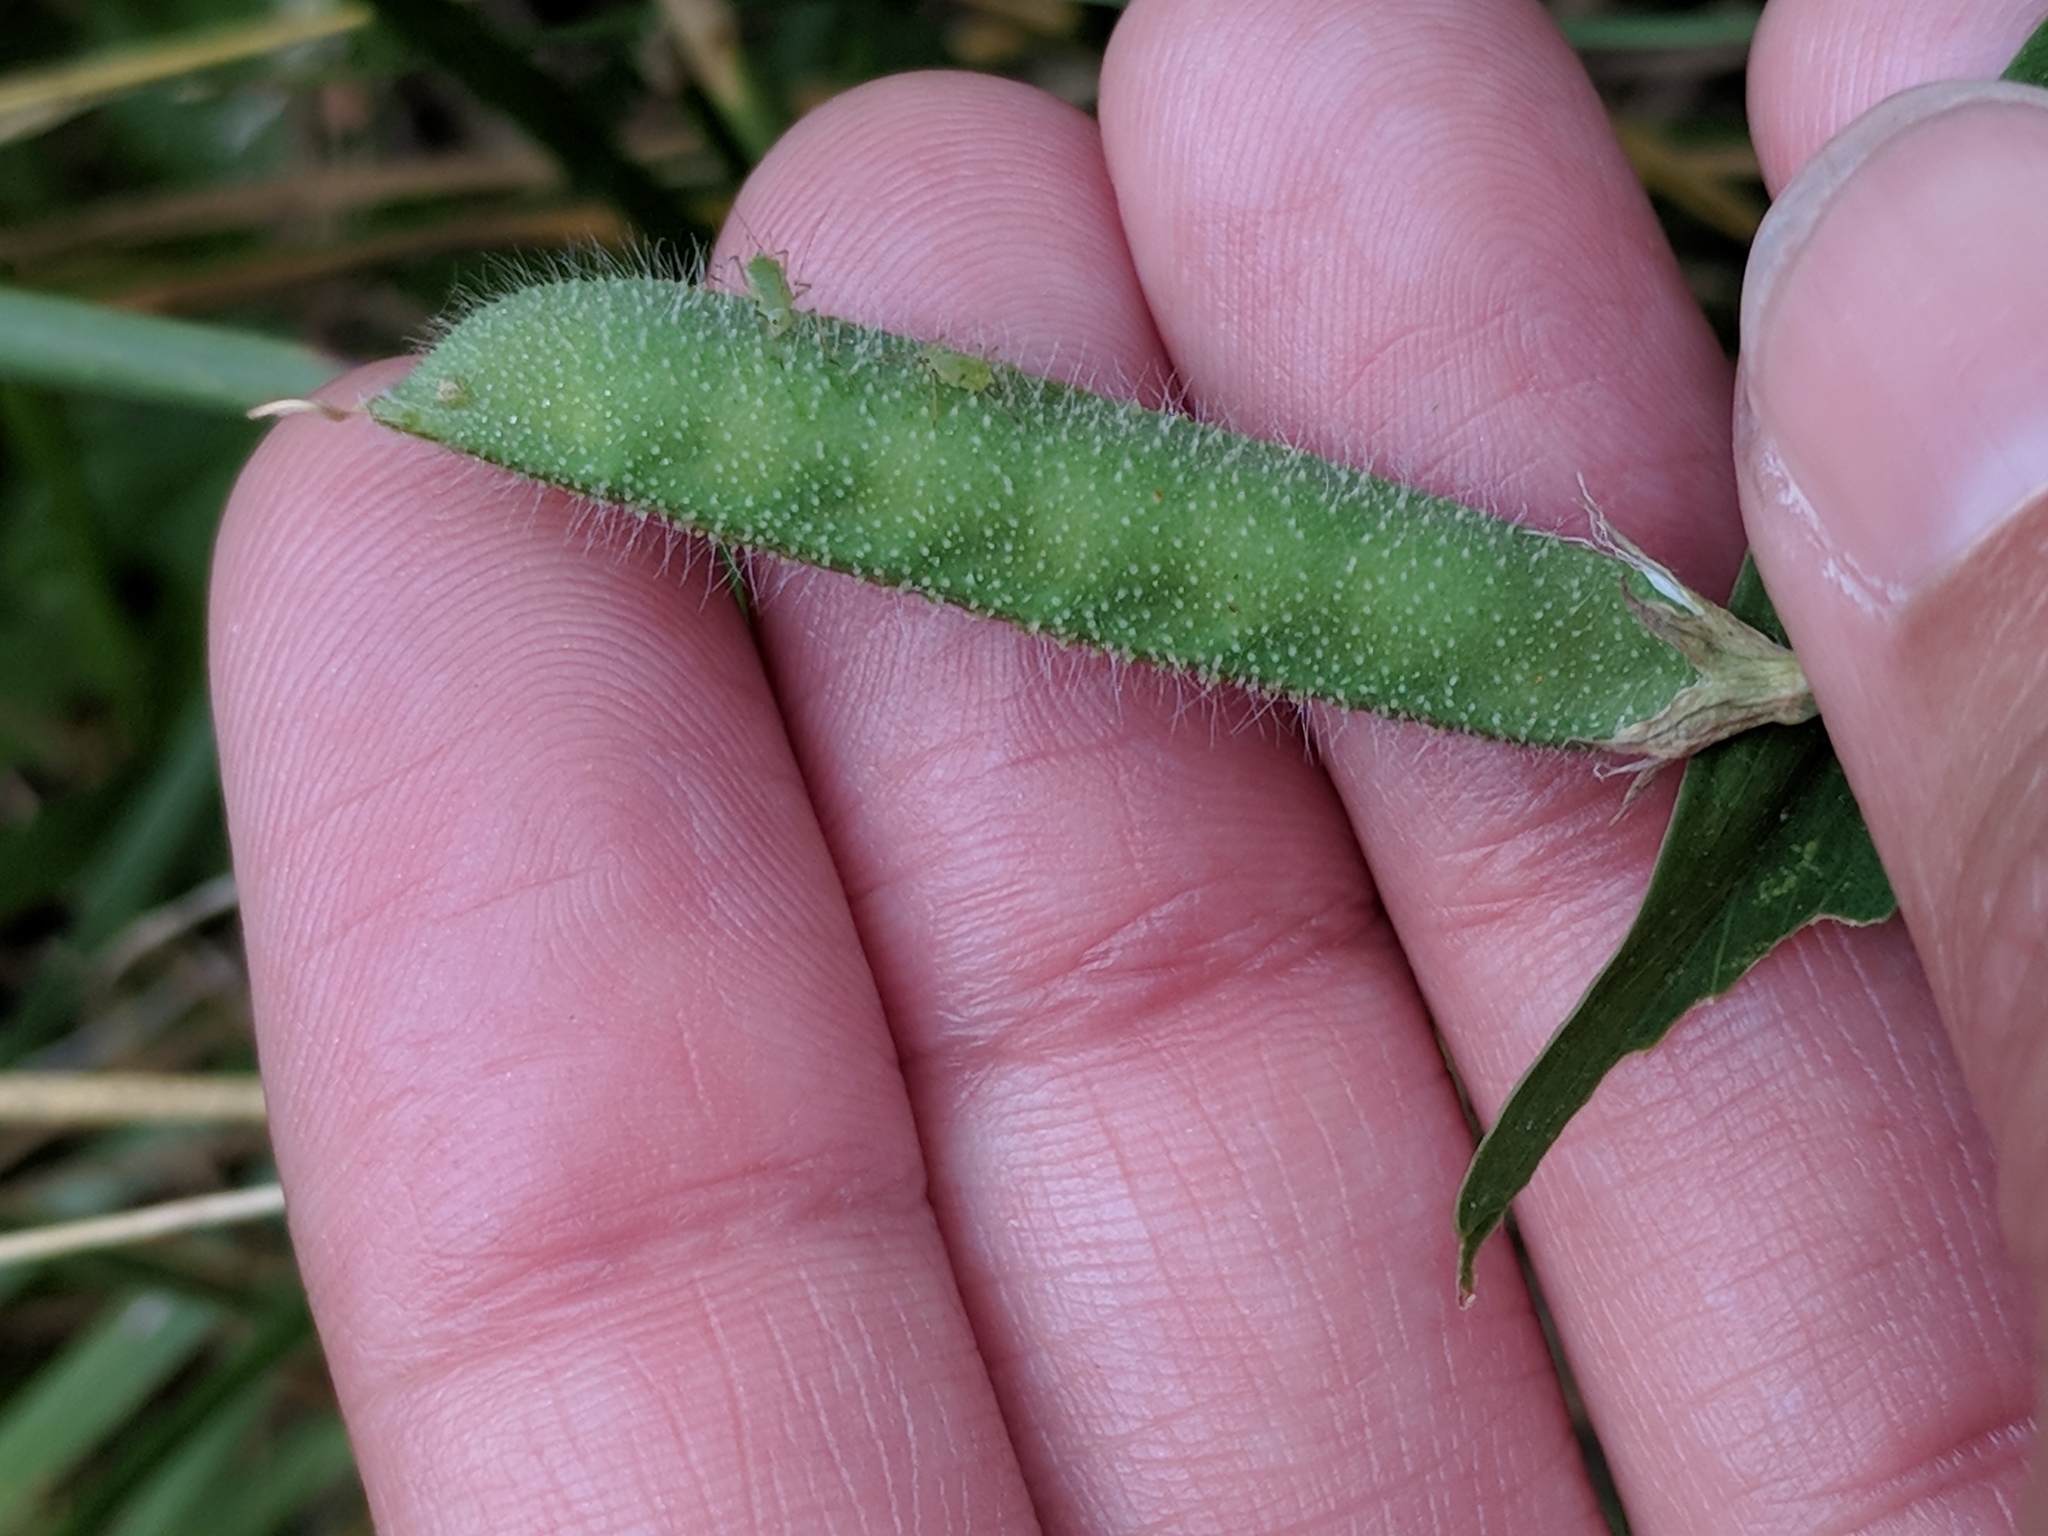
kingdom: Plantae
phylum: Tracheophyta
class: Magnoliopsida
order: Fabales
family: Fabaceae
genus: Lathyrus
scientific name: Lathyrus hirsutus
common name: Hairy vetchling
